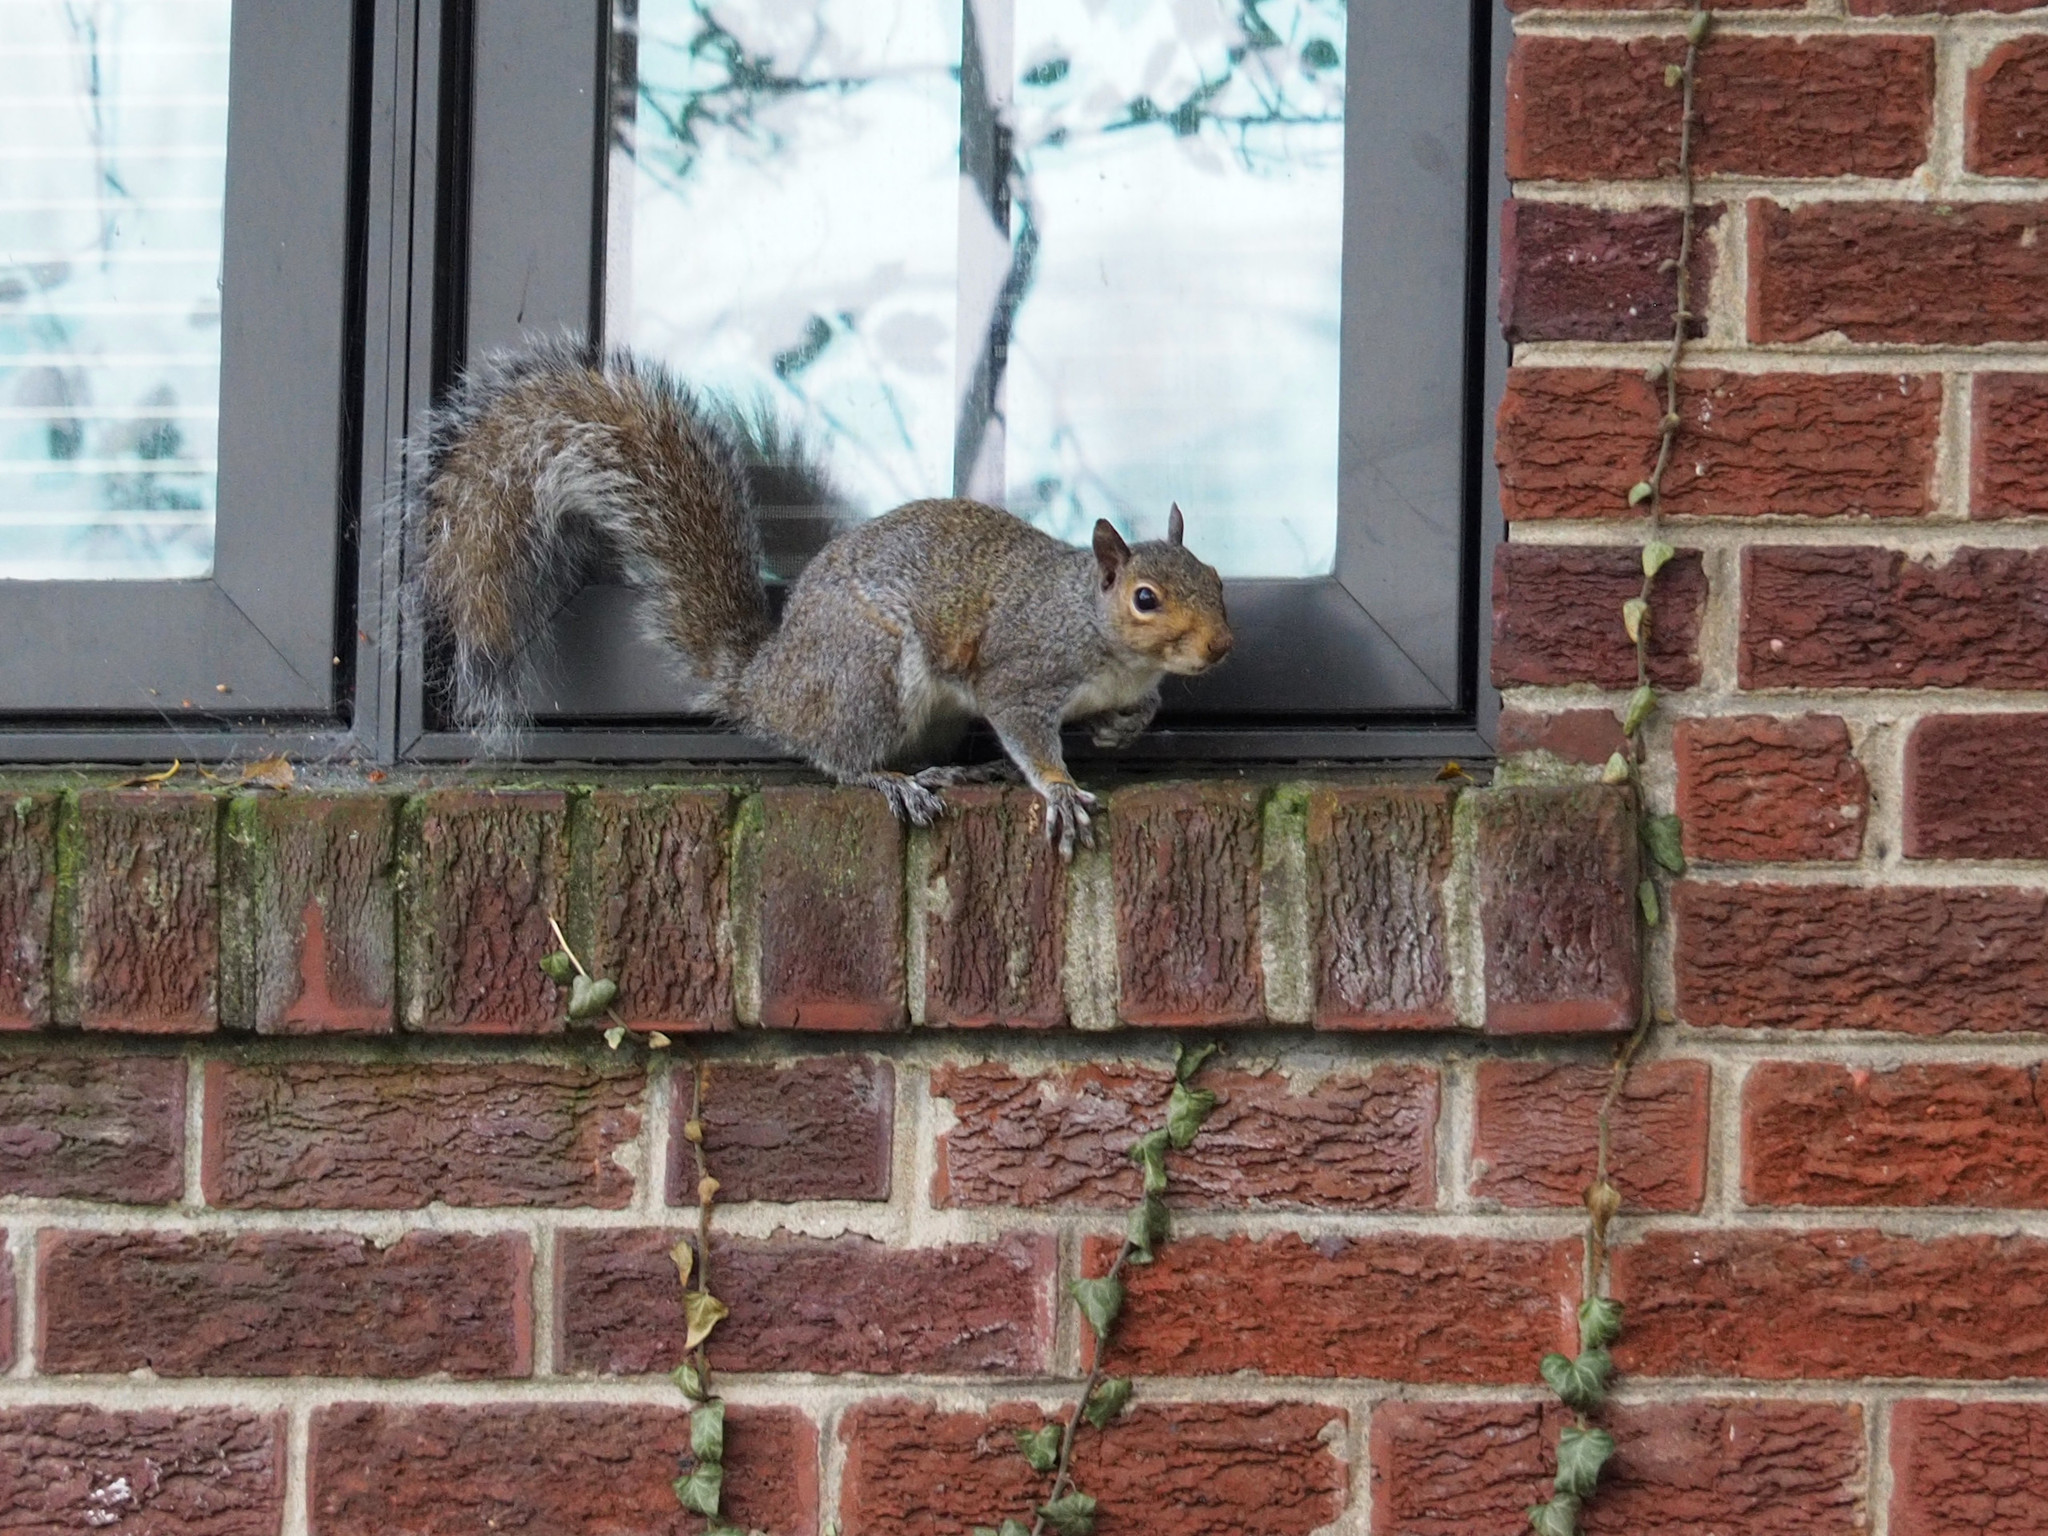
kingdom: Animalia
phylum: Chordata
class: Mammalia
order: Rodentia
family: Sciuridae
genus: Sciurus
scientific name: Sciurus carolinensis
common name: Eastern gray squirrel
